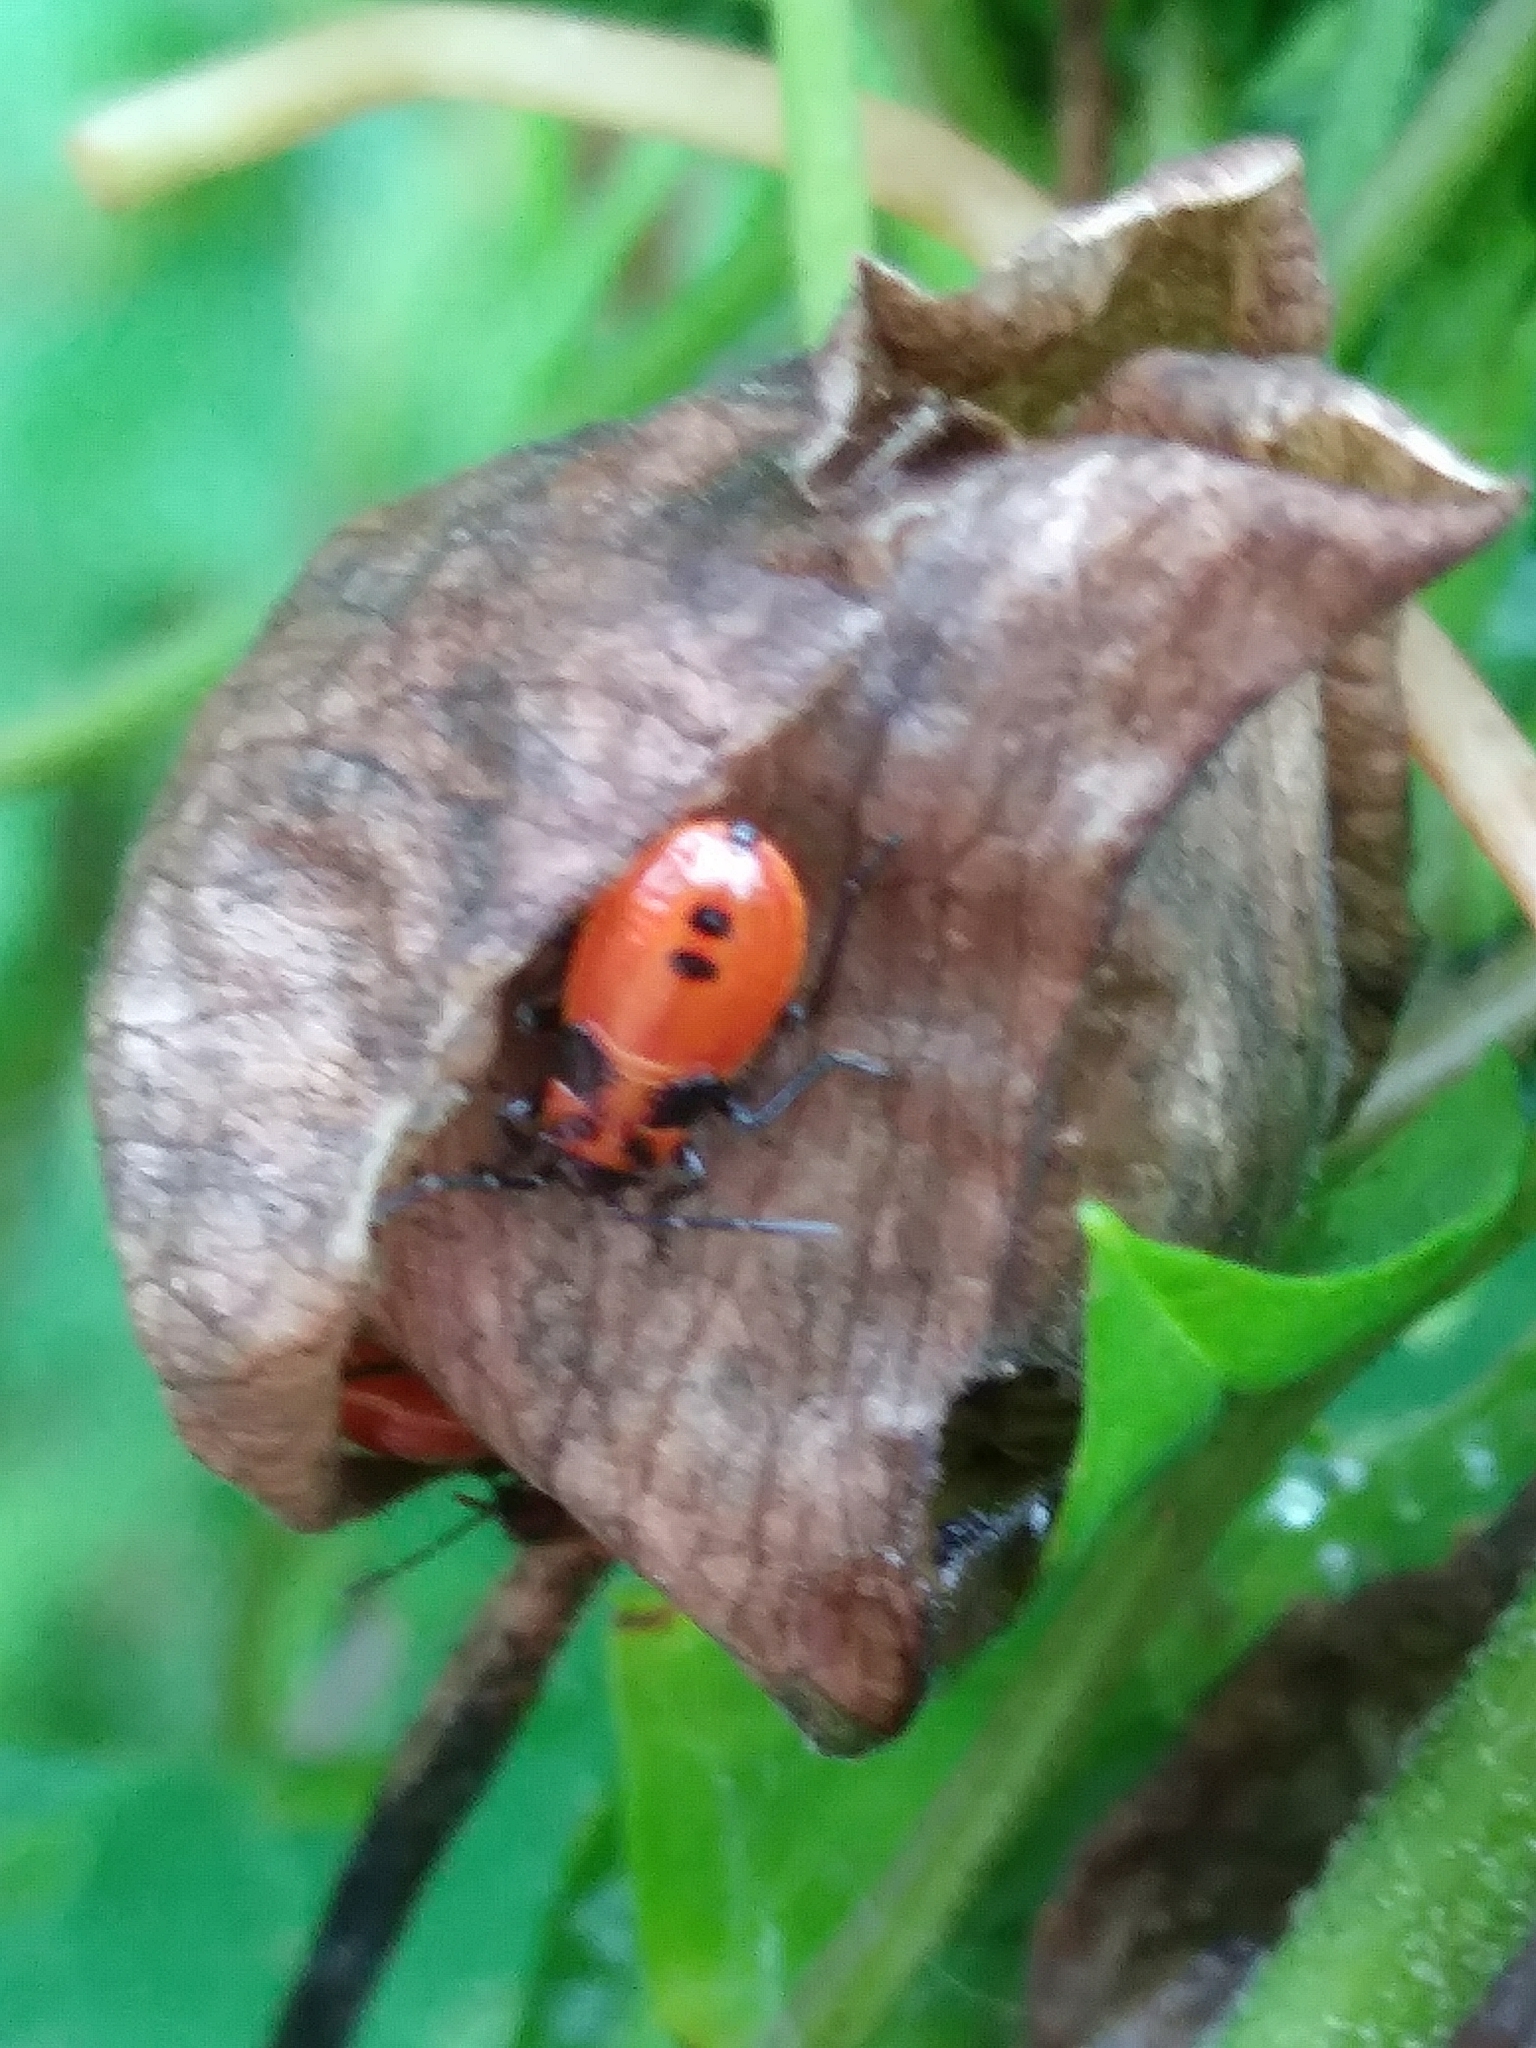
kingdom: Animalia
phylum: Arthropoda
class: Insecta
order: Hemiptera
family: Lygaeidae
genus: Lygaeus
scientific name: Lygaeus turcicus
